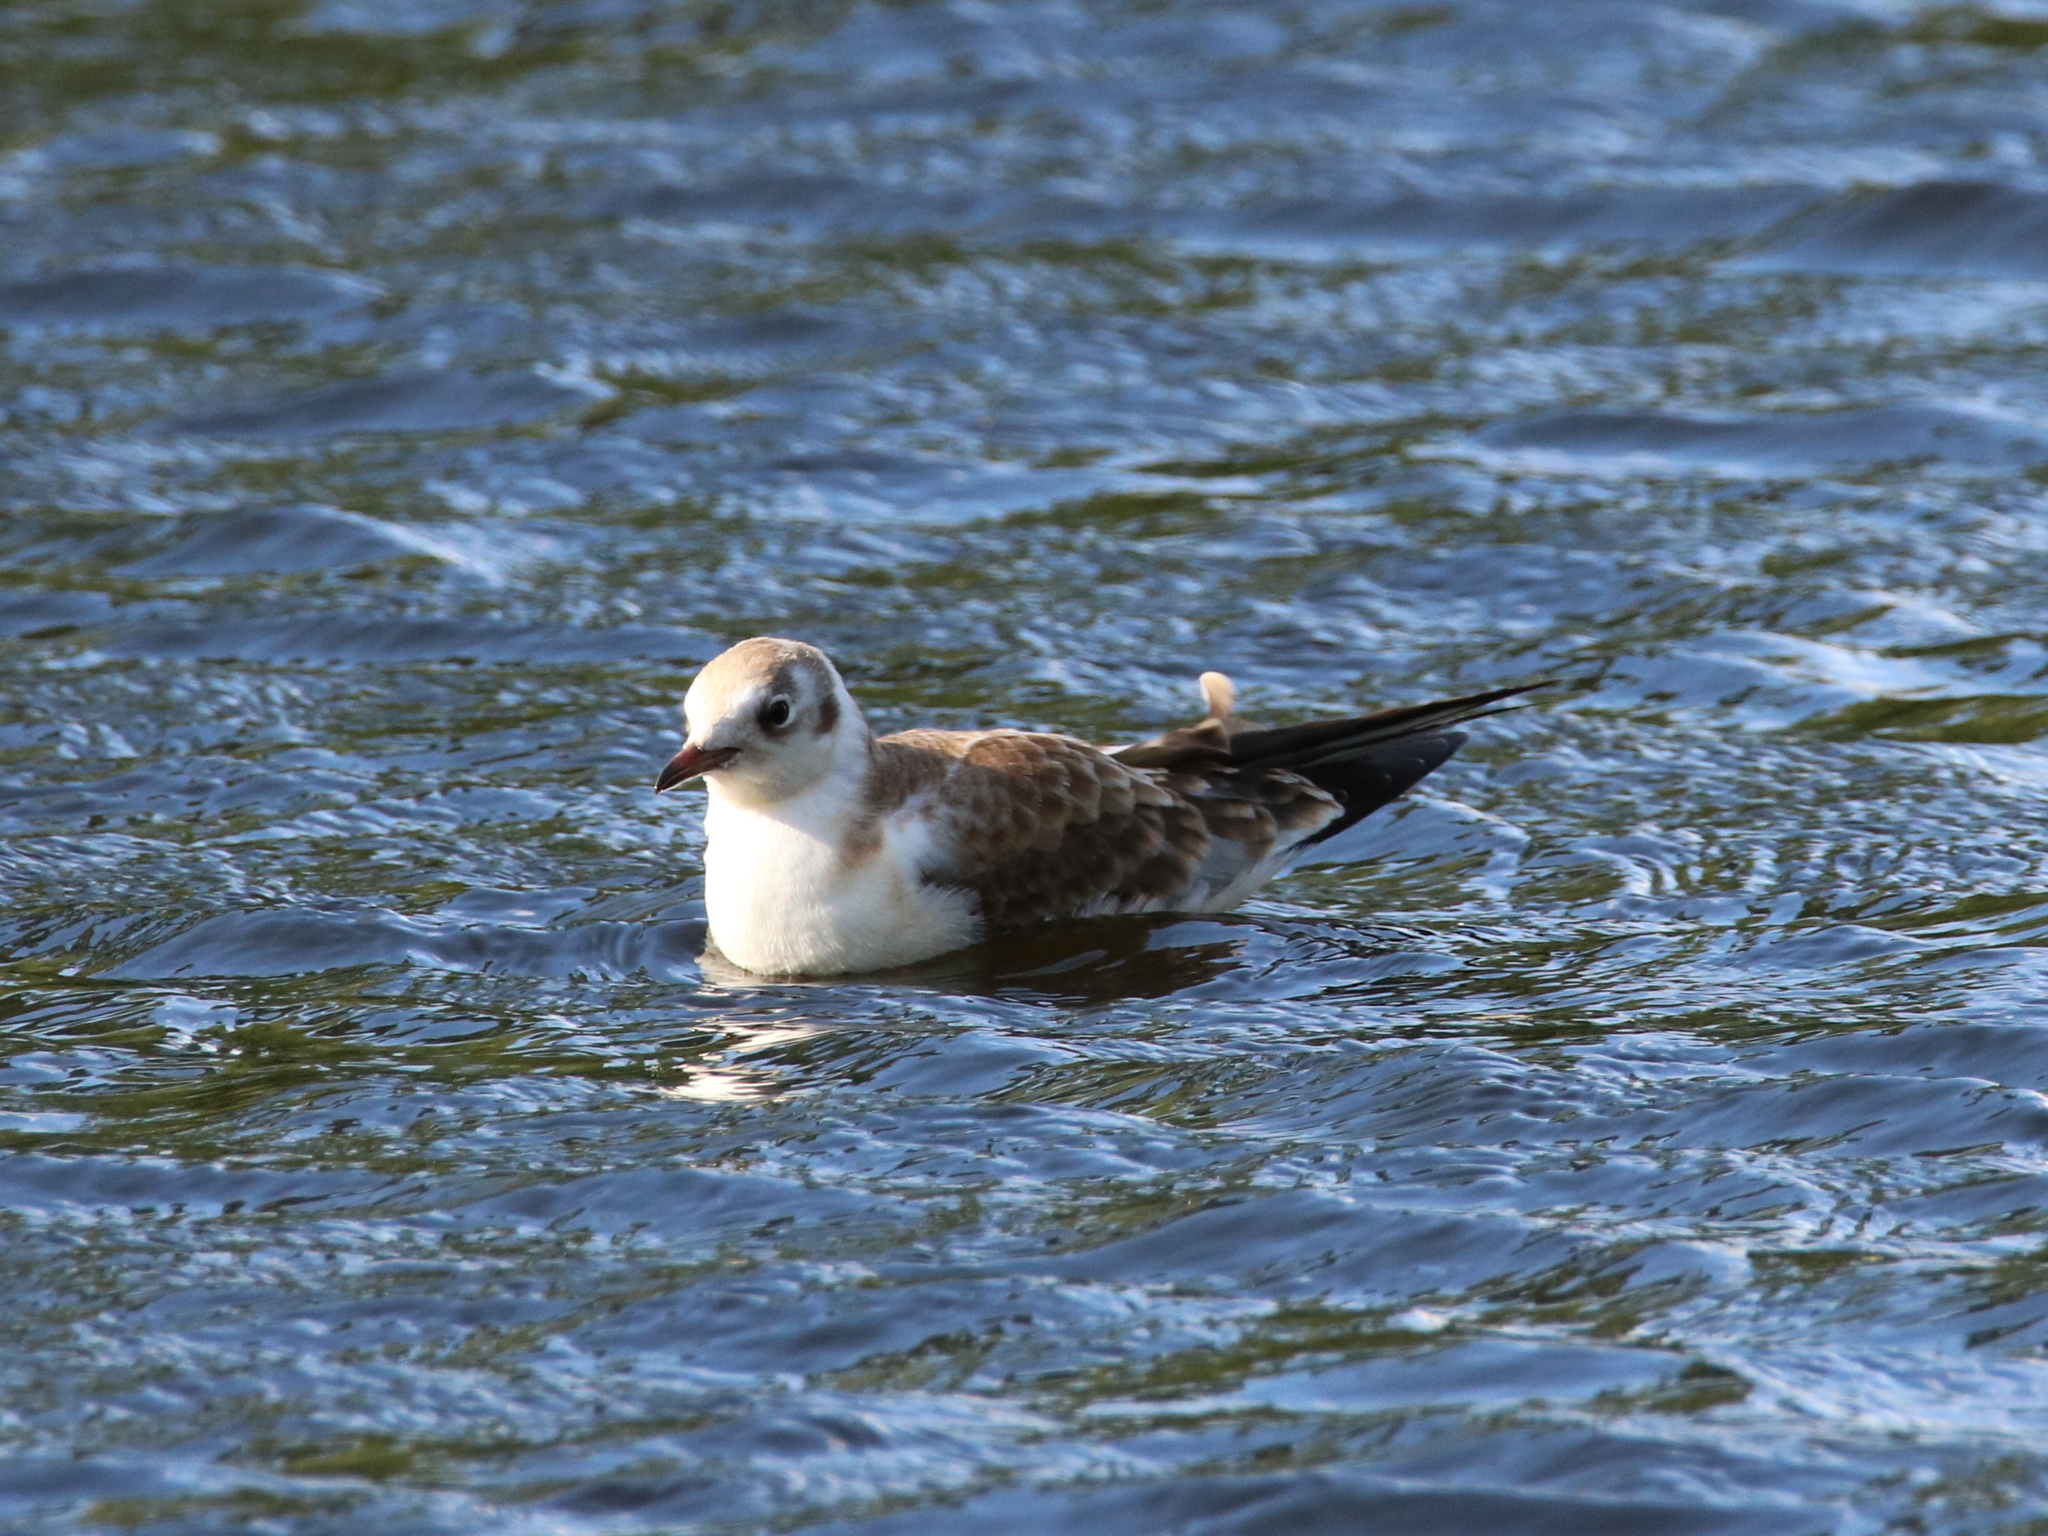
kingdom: Animalia
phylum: Chordata
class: Aves
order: Charadriiformes
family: Laridae
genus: Chroicocephalus
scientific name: Chroicocephalus ridibundus
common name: Black-headed gull
